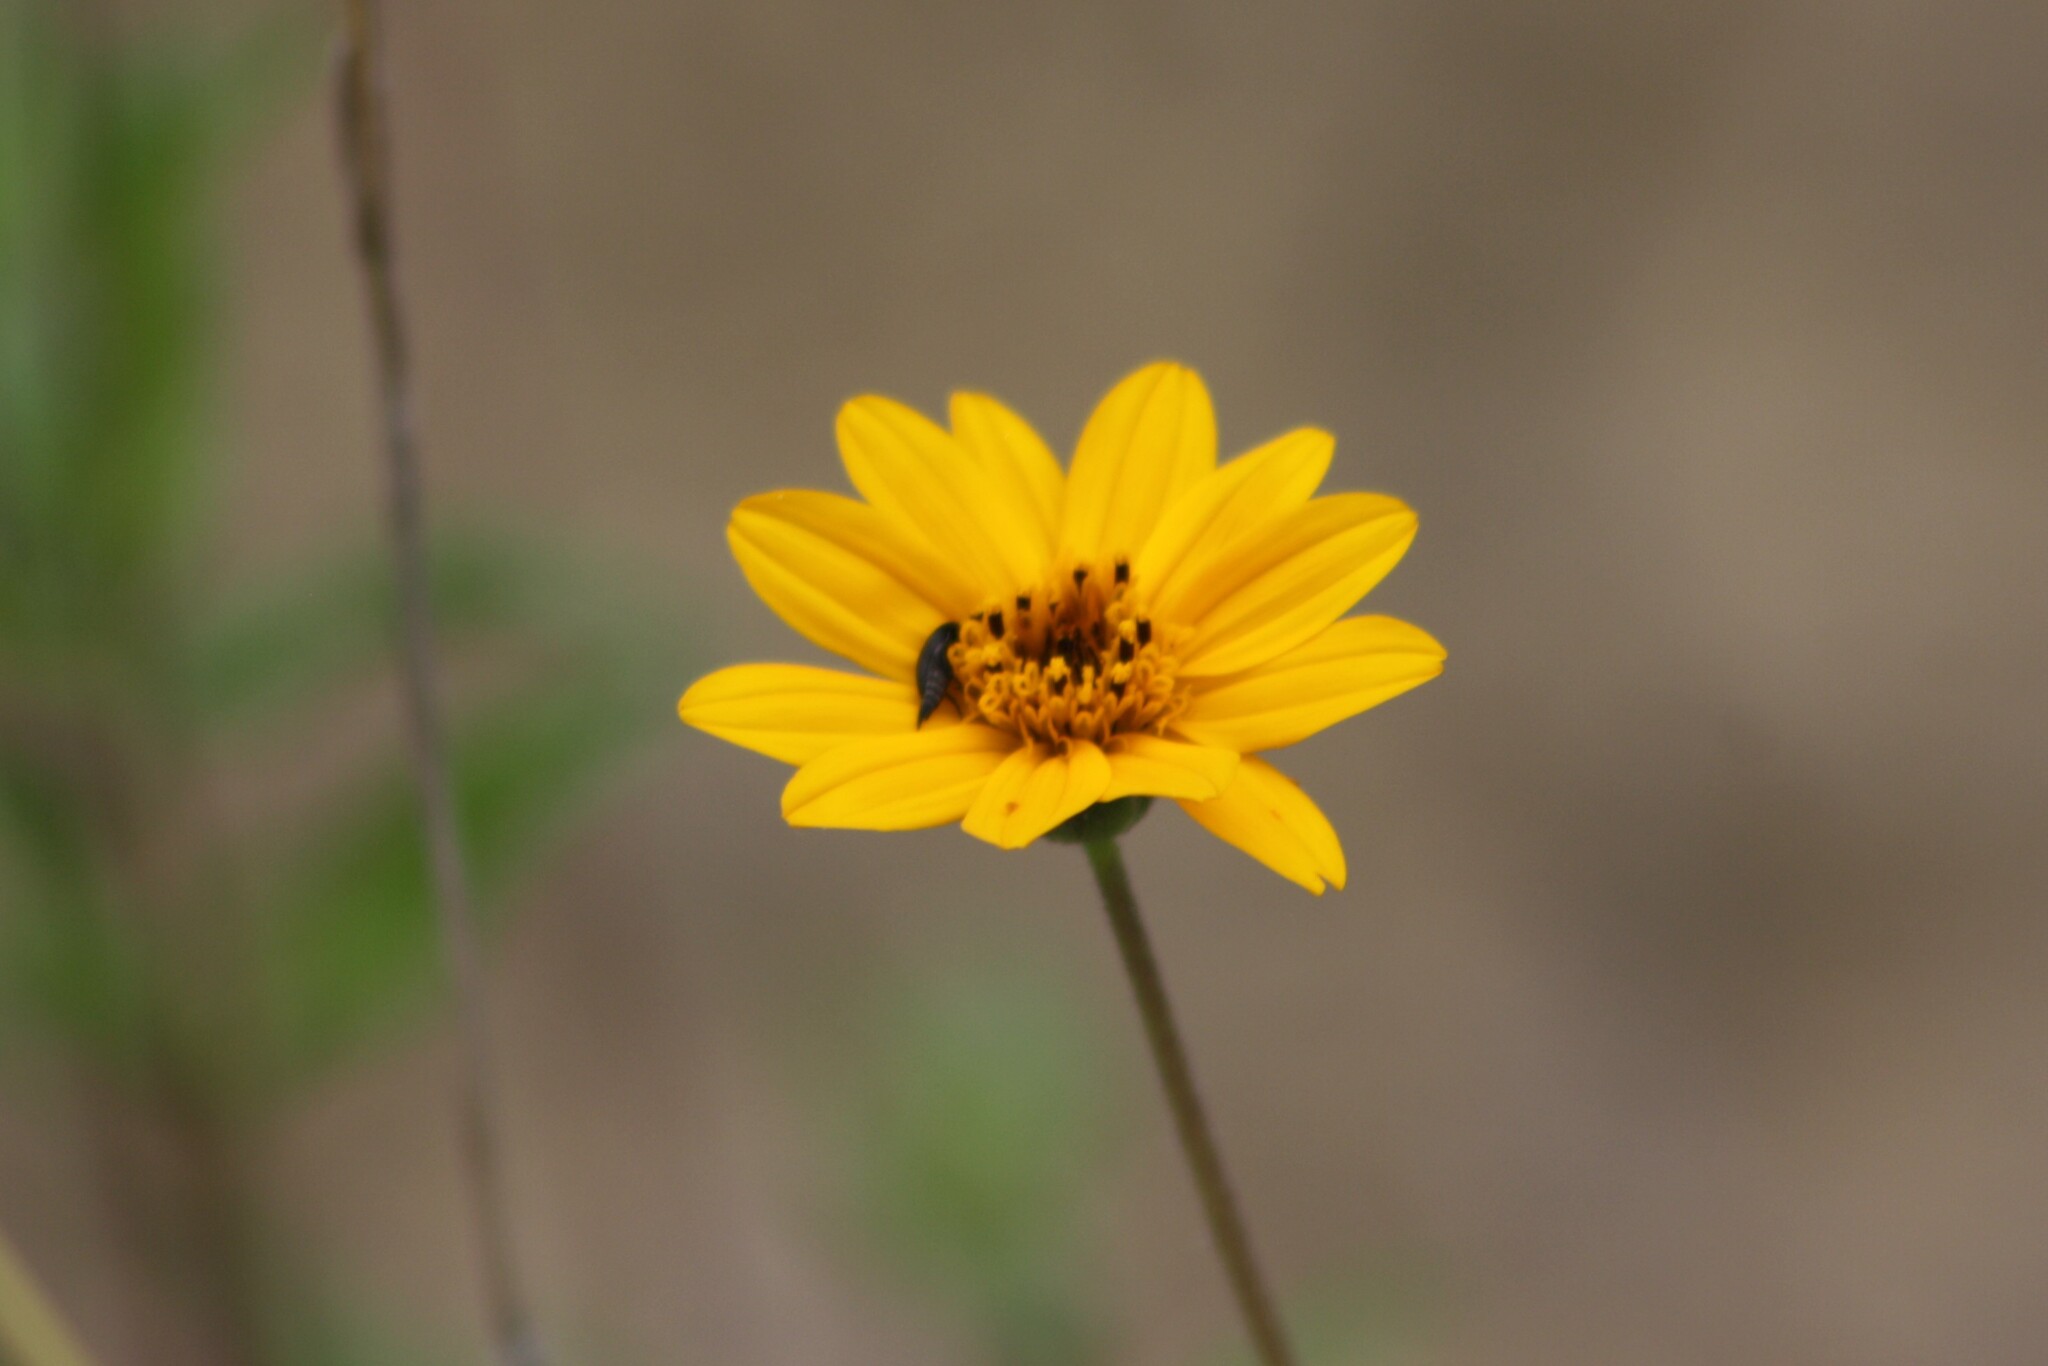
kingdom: Plantae
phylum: Tracheophyta
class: Magnoliopsida
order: Asterales
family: Asteraceae
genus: Wedelia
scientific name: Wedelia acapulcensis
